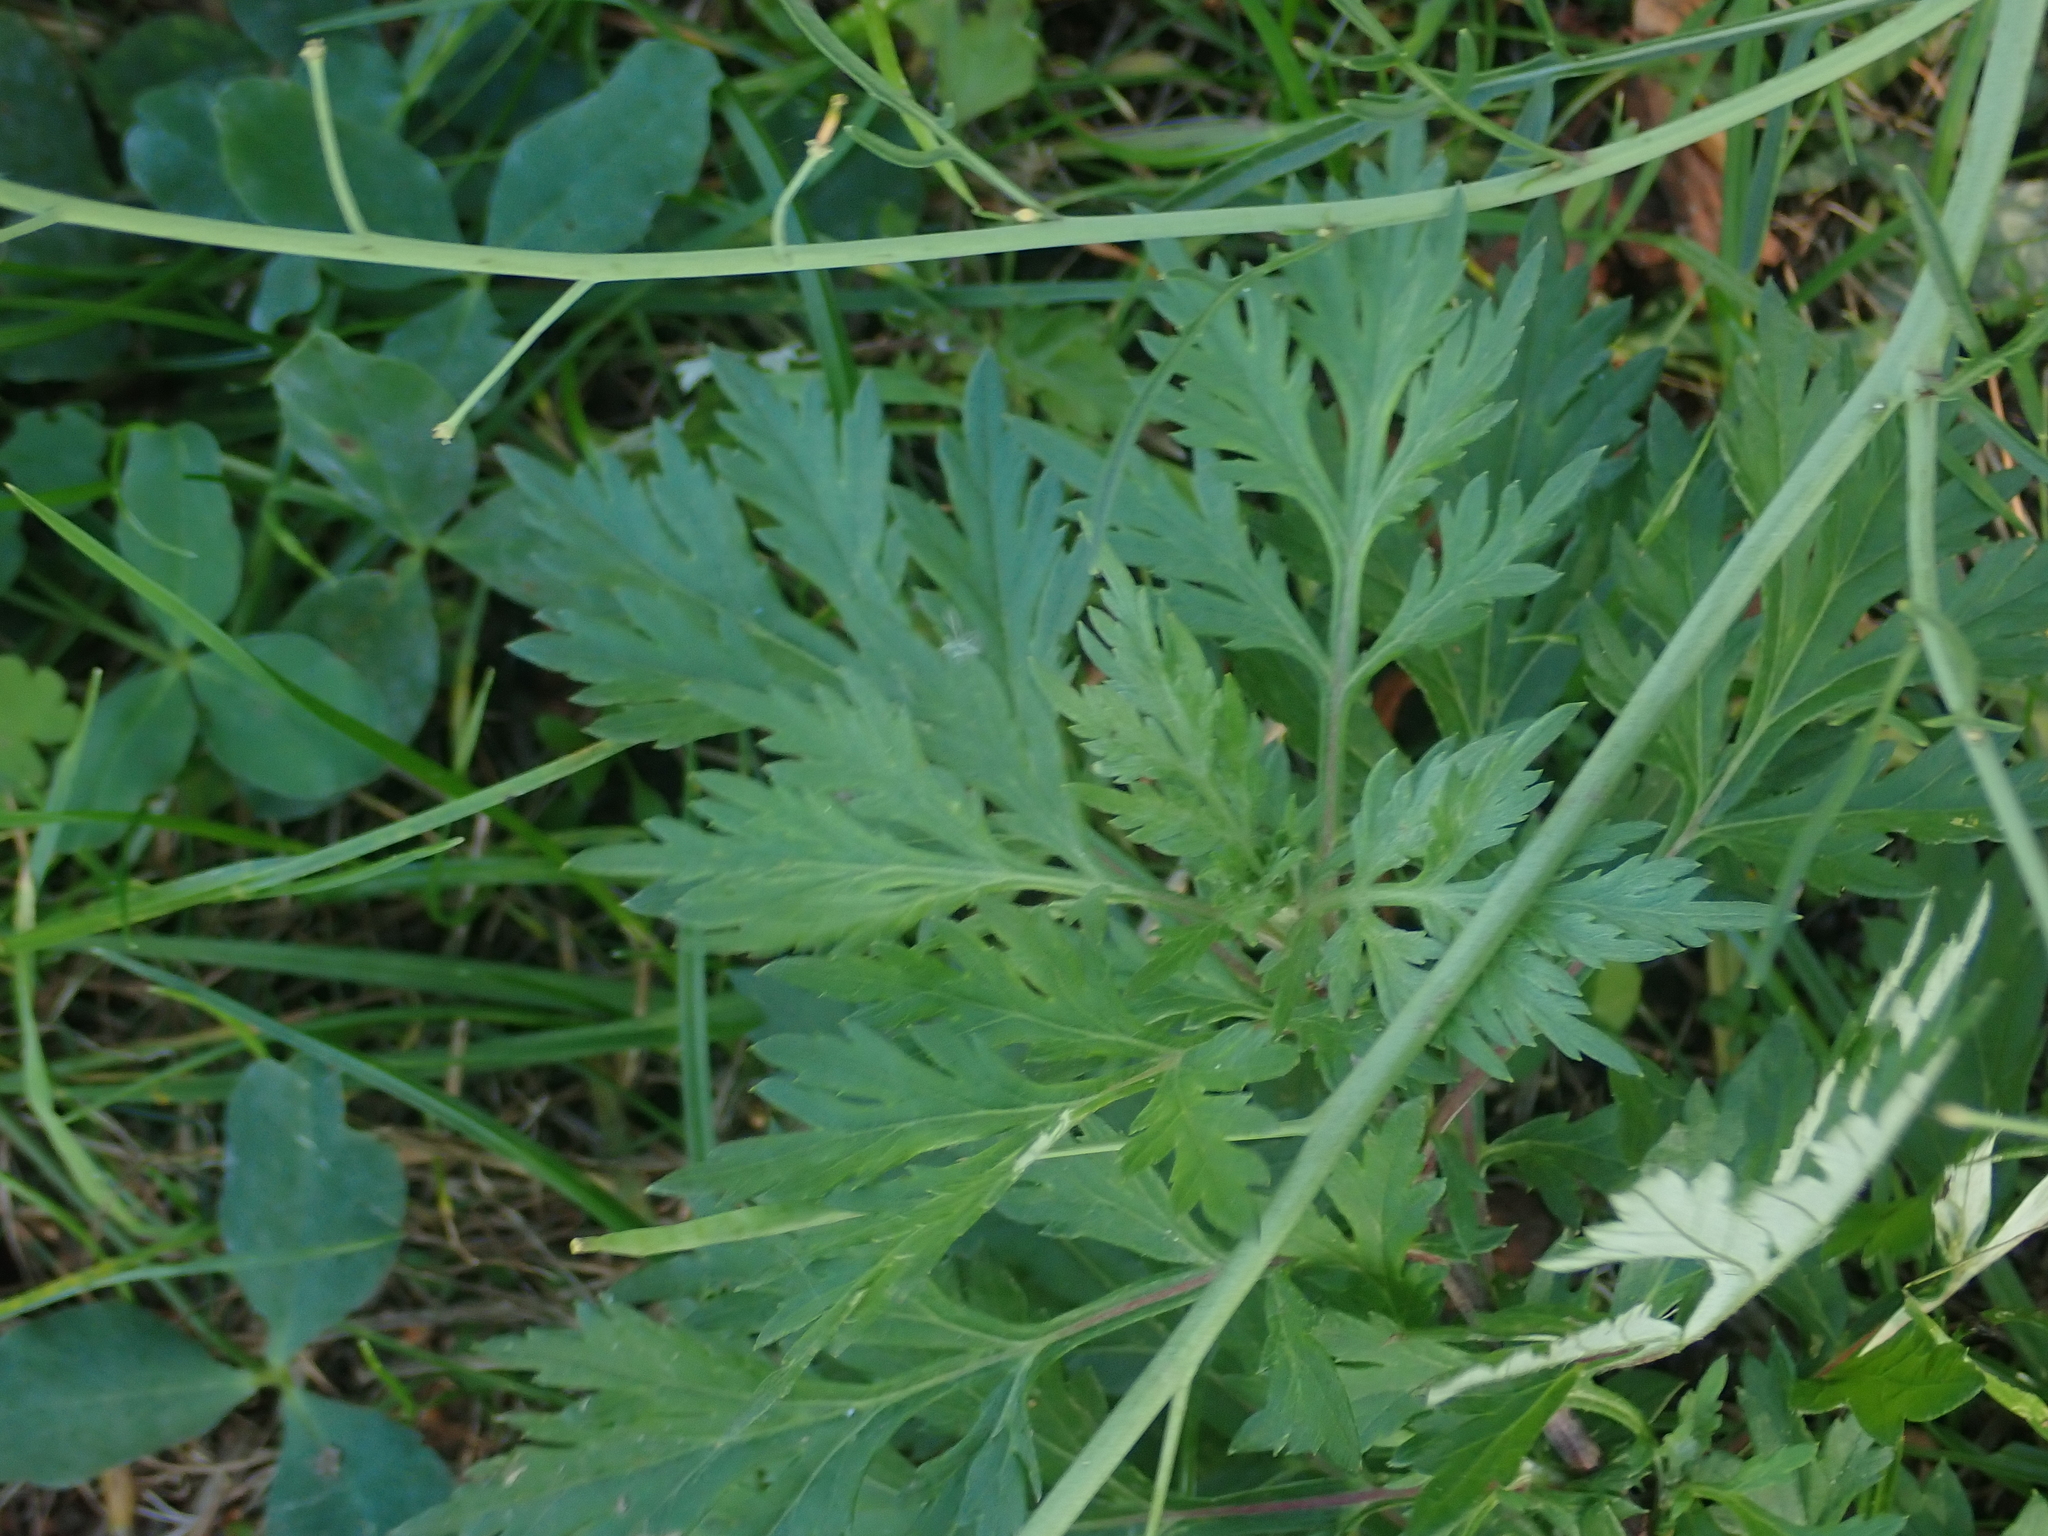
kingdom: Plantae
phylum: Tracheophyta
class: Magnoliopsida
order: Asterales
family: Asteraceae
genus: Artemisia
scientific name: Artemisia vulgaris
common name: Mugwort
